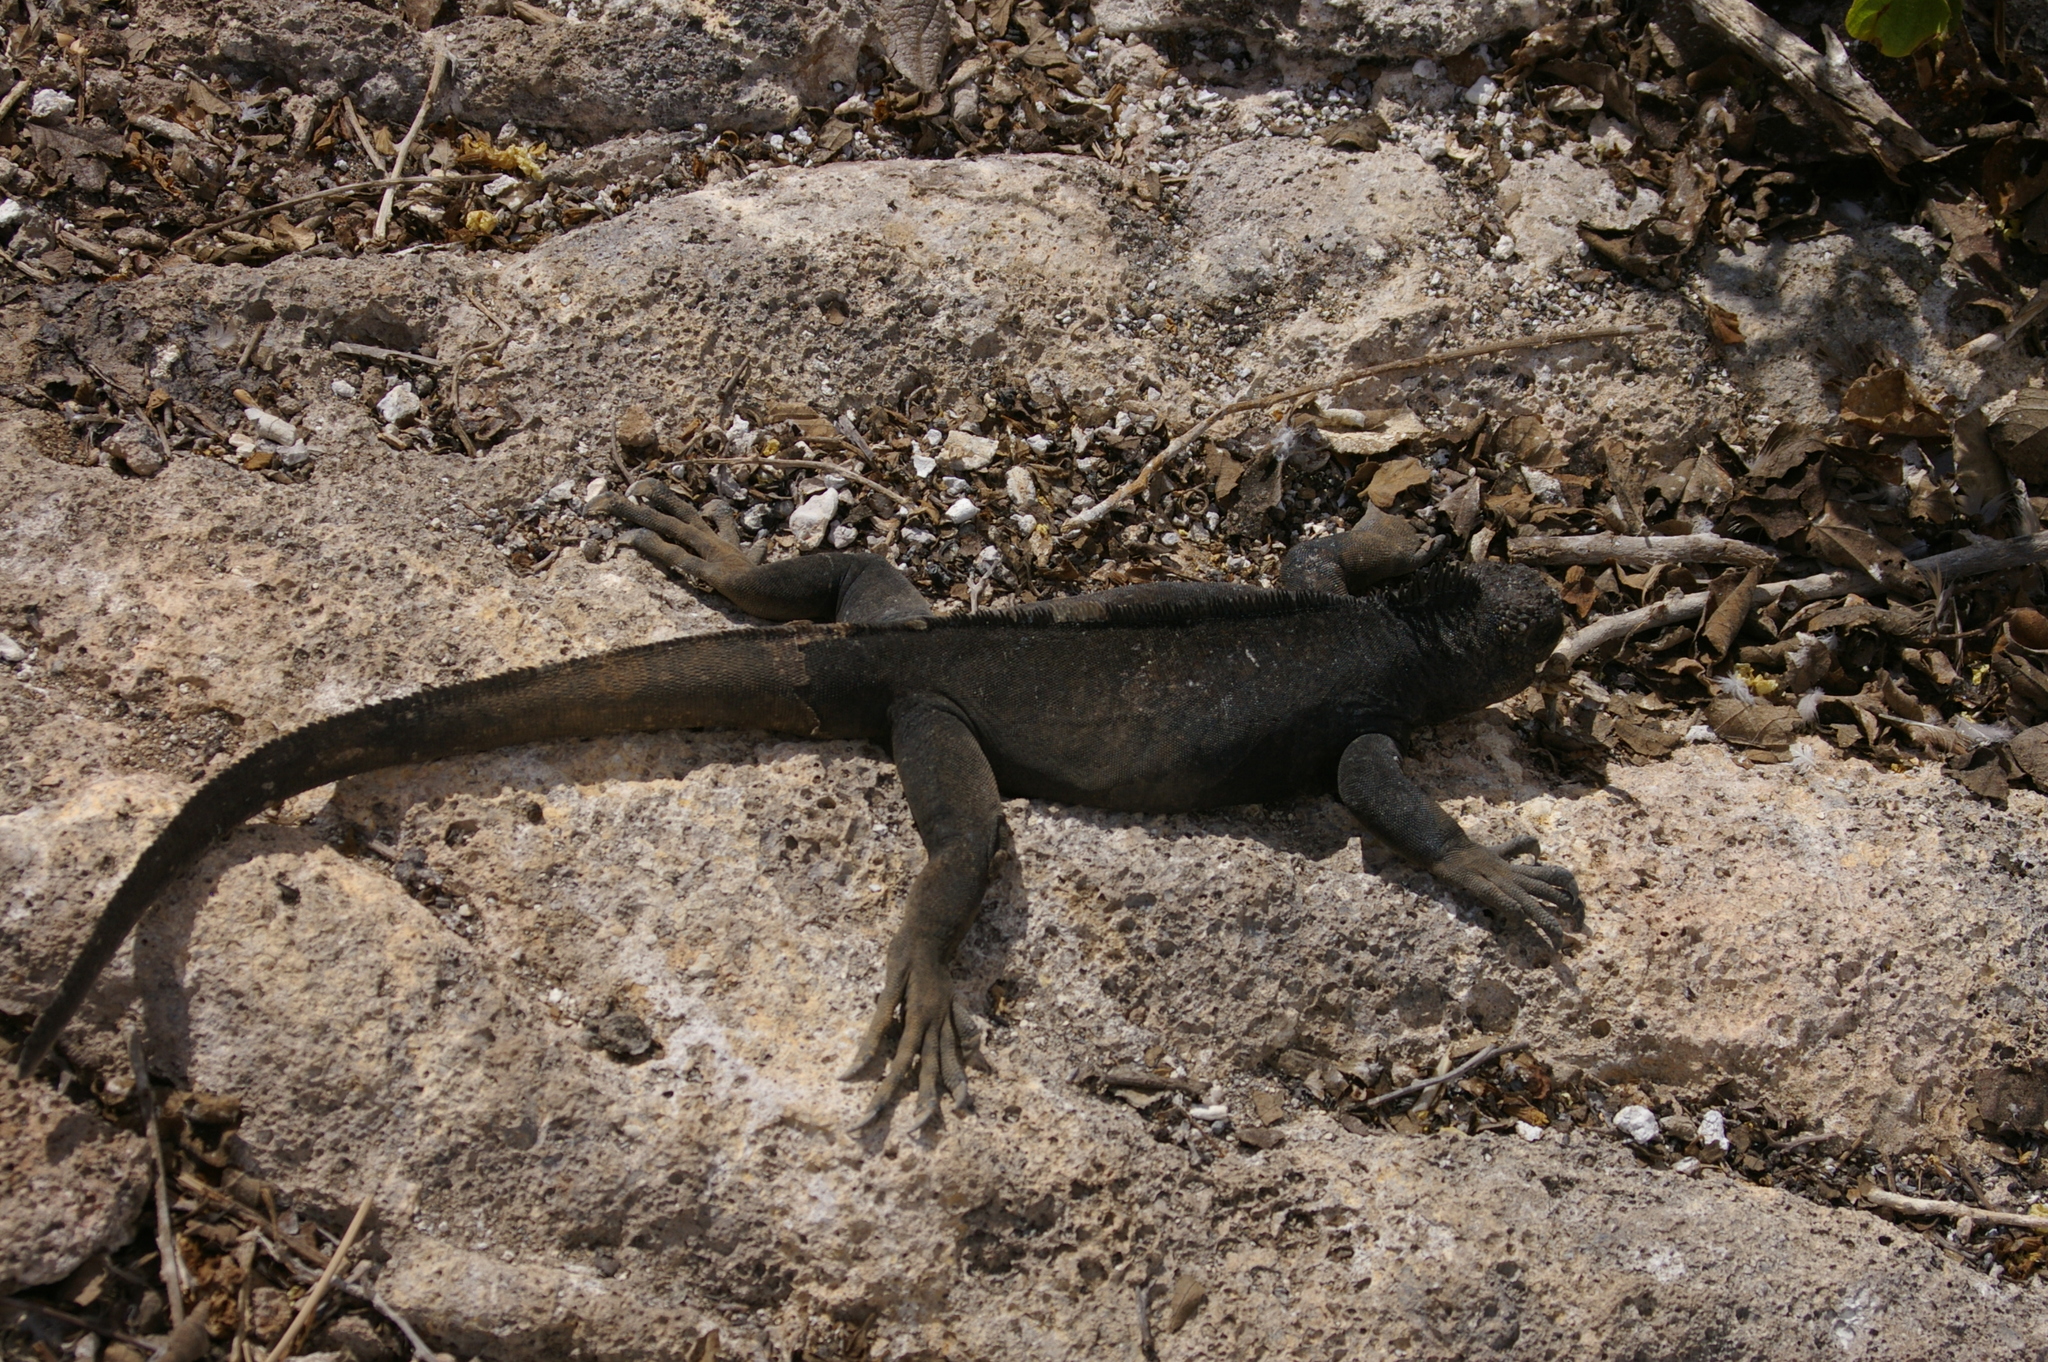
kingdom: Animalia
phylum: Chordata
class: Squamata
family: Iguanidae
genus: Amblyrhynchus
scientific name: Amblyrhynchus cristatus
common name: Marine iguana
